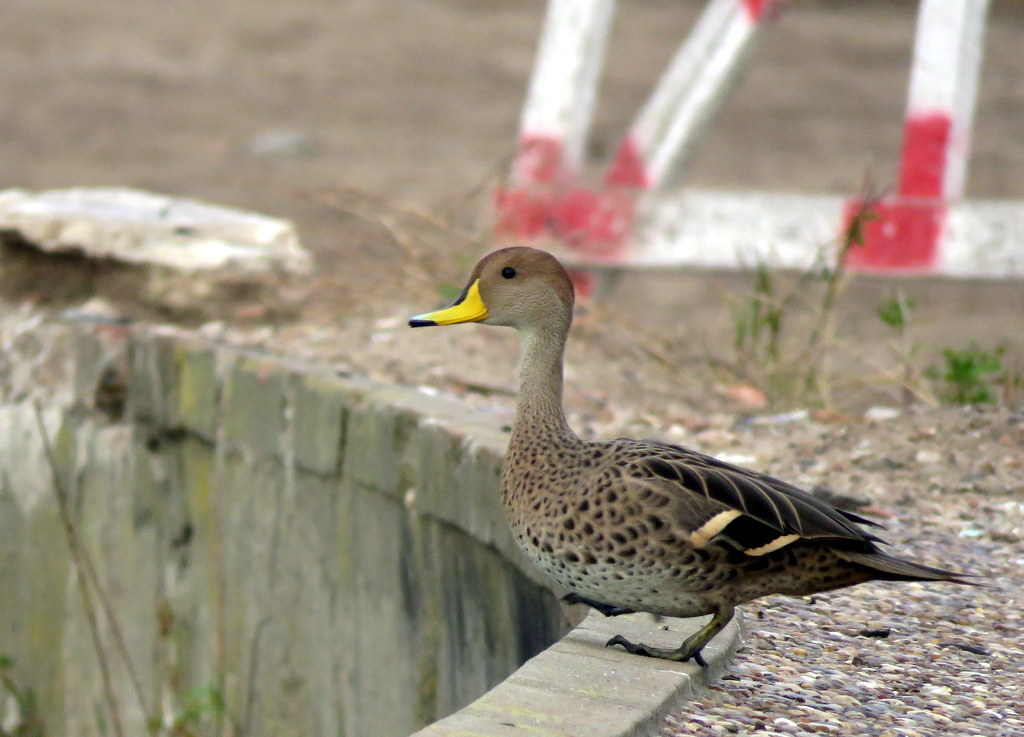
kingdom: Animalia
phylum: Chordata
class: Aves
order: Anseriformes
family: Anatidae
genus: Anas
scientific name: Anas georgica
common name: Yellow-billed pintail
